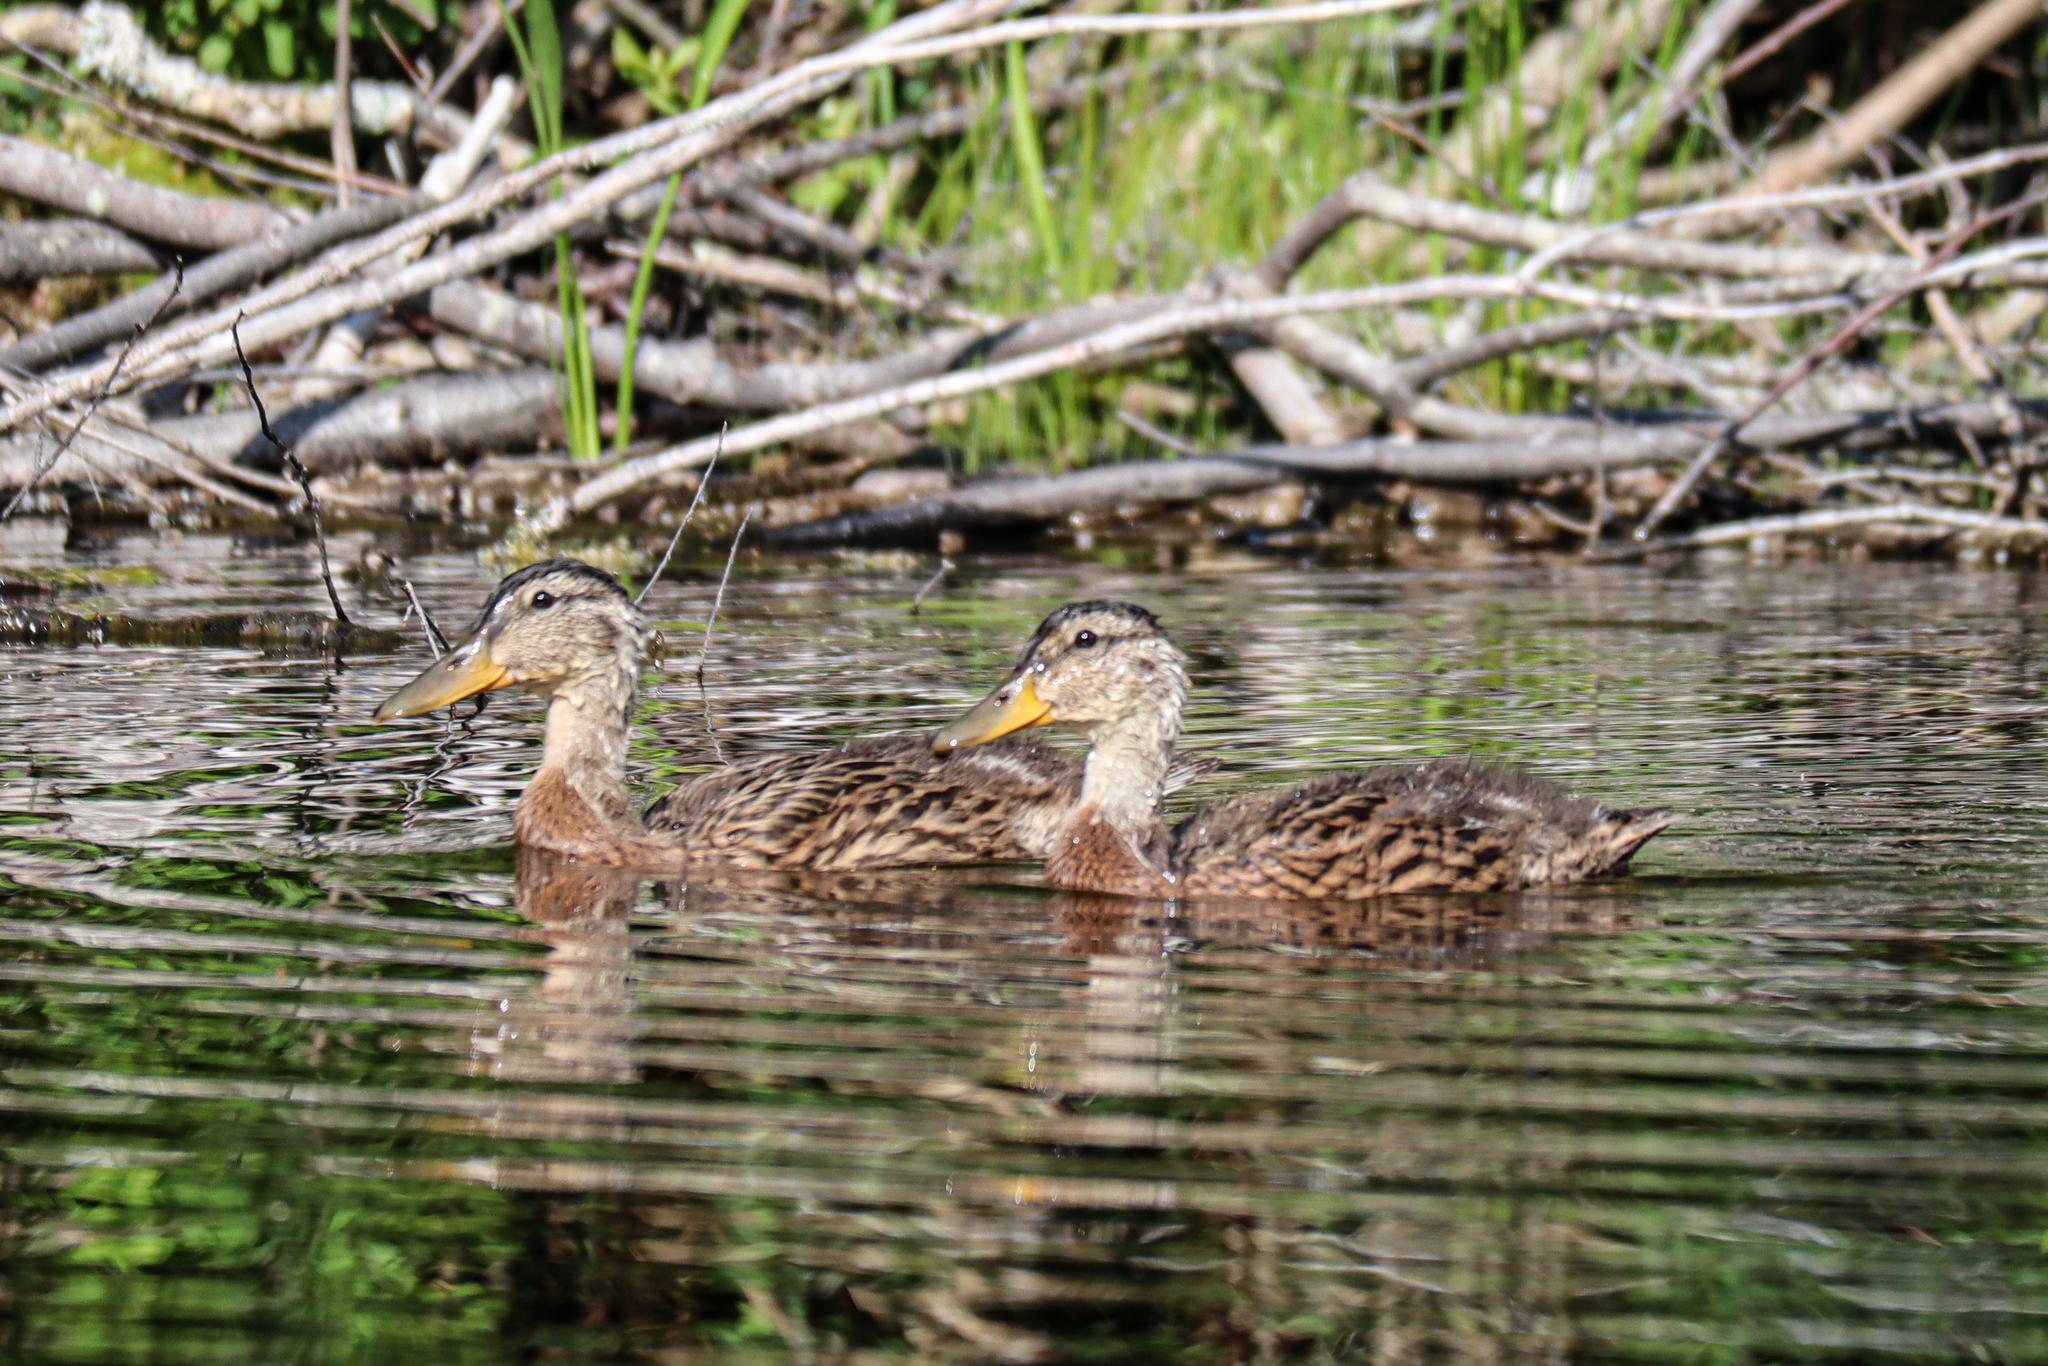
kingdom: Animalia
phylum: Chordata
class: Aves
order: Anseriformes
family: Anatidae
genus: Anas
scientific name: Anas platyrhynchos
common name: Mallard
